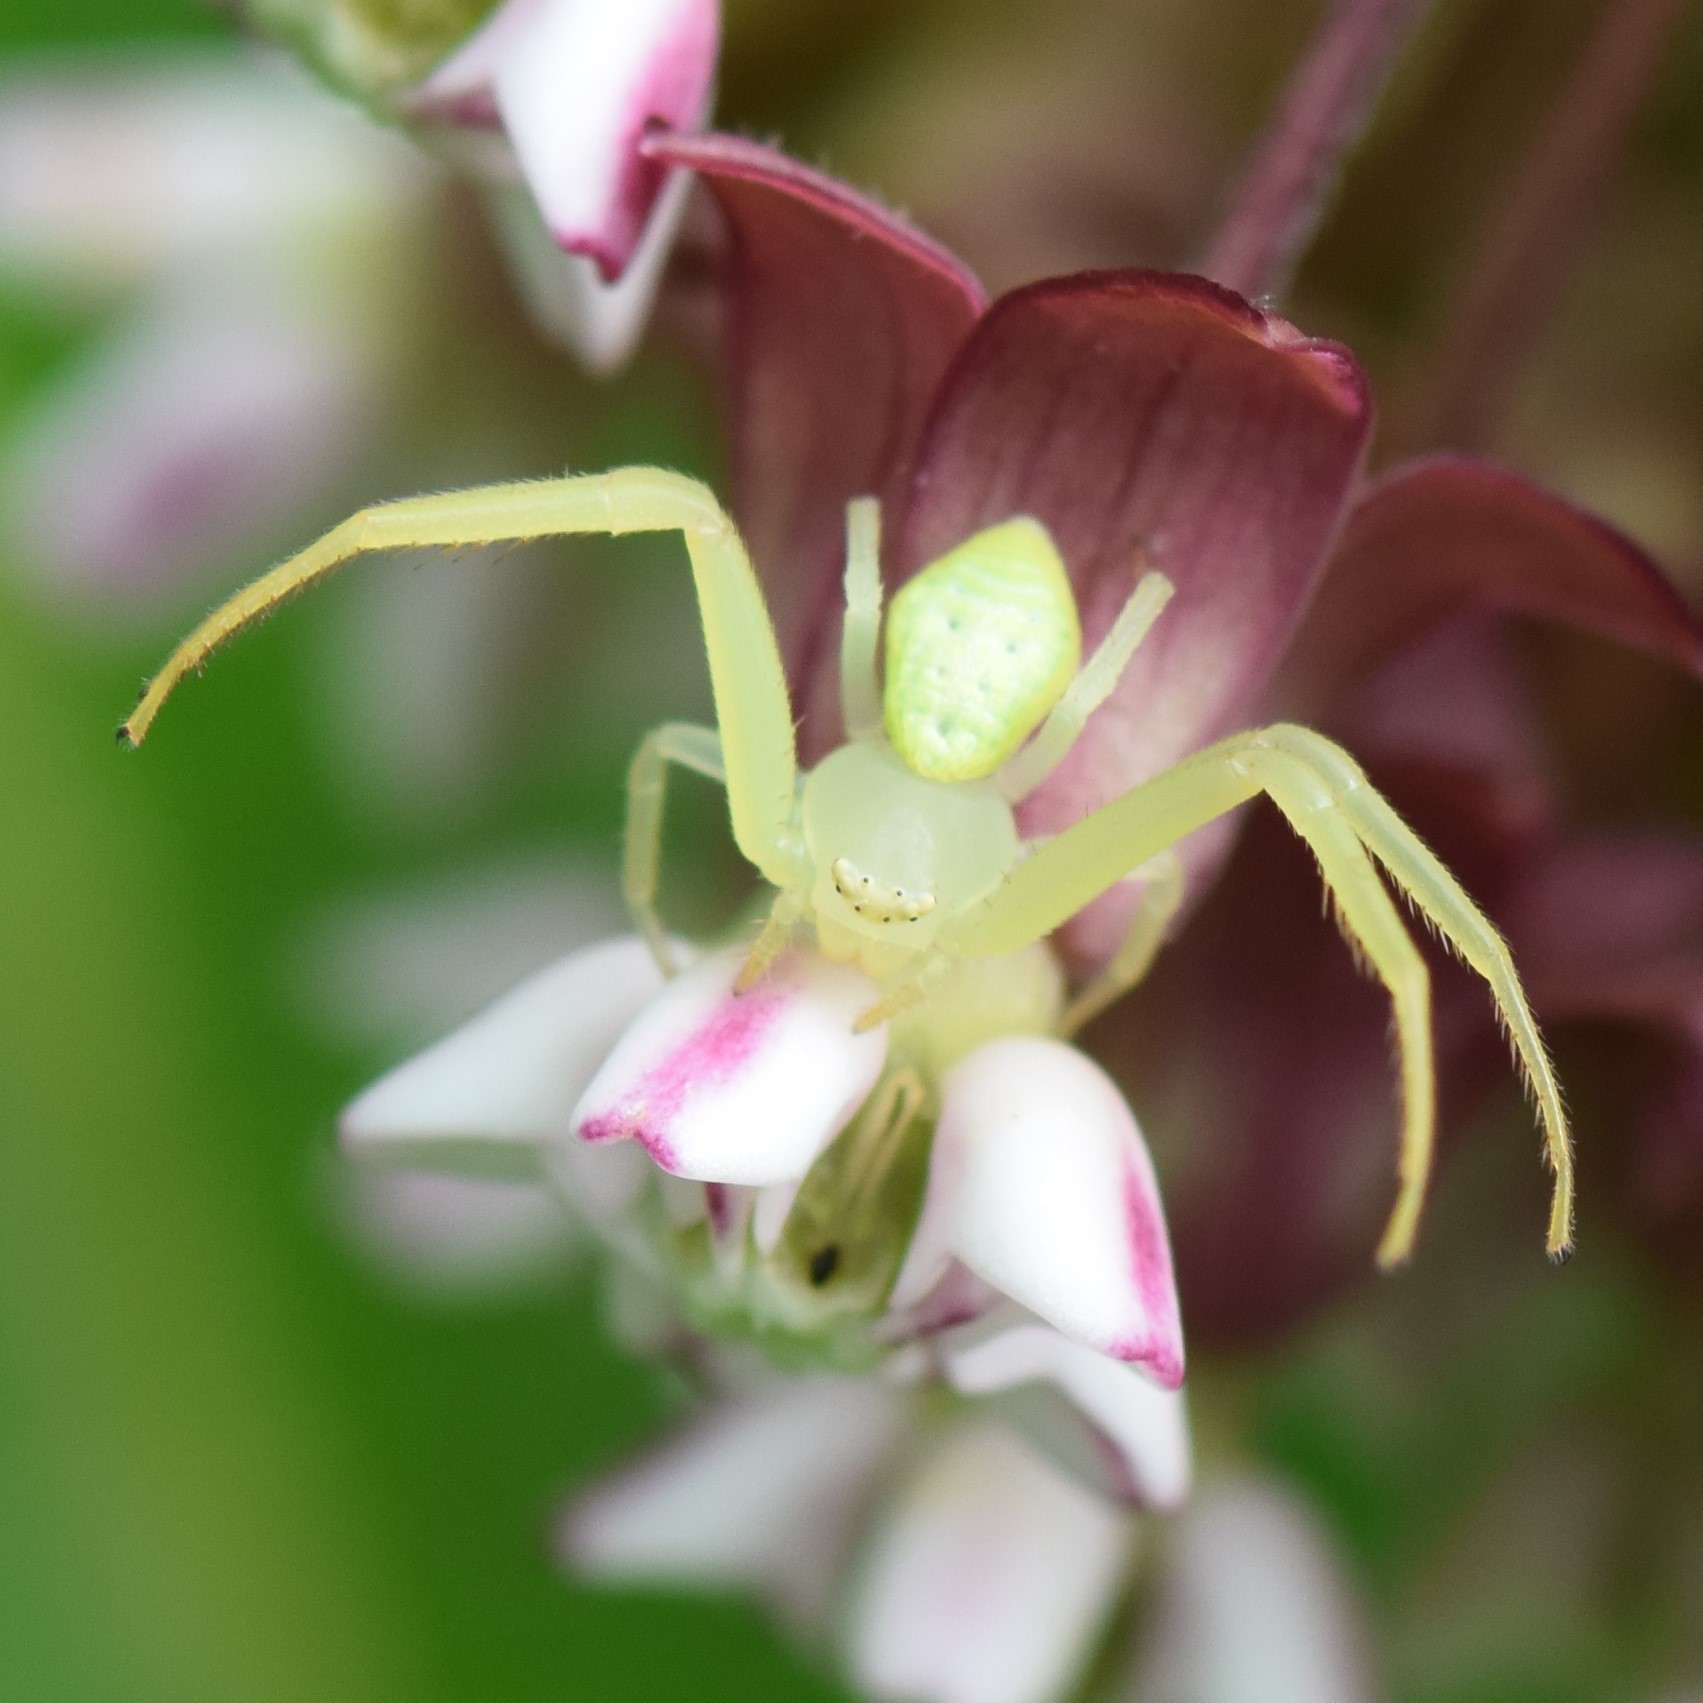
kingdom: Animalia
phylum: Arthropoda
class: Arachnida
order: Araneae
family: Thomisidae
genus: Misumessus
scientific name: Misumessus oblongus
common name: American green crab spider
